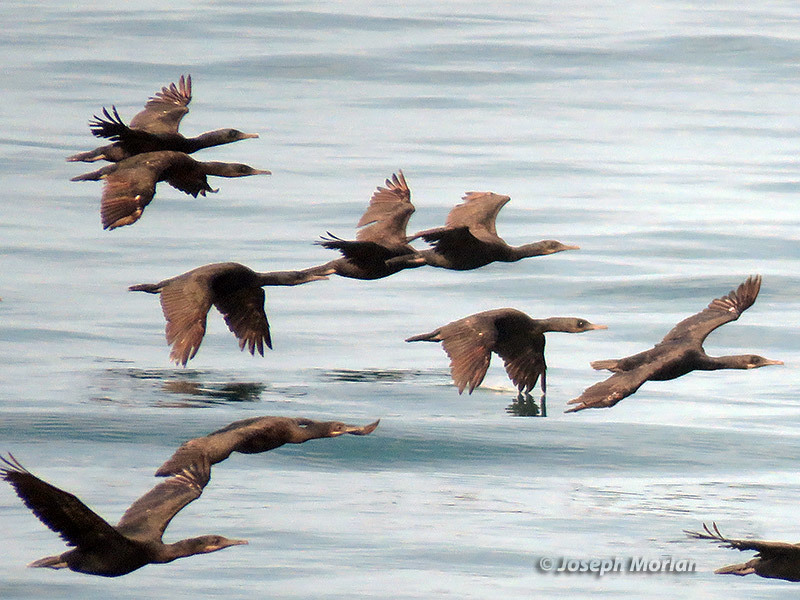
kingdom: Animalia
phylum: Chordata
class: Aves
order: Suliformes
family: Phalacrocoracidae
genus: Urile
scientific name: Urile penicillatus
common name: Brandt's cormorant
